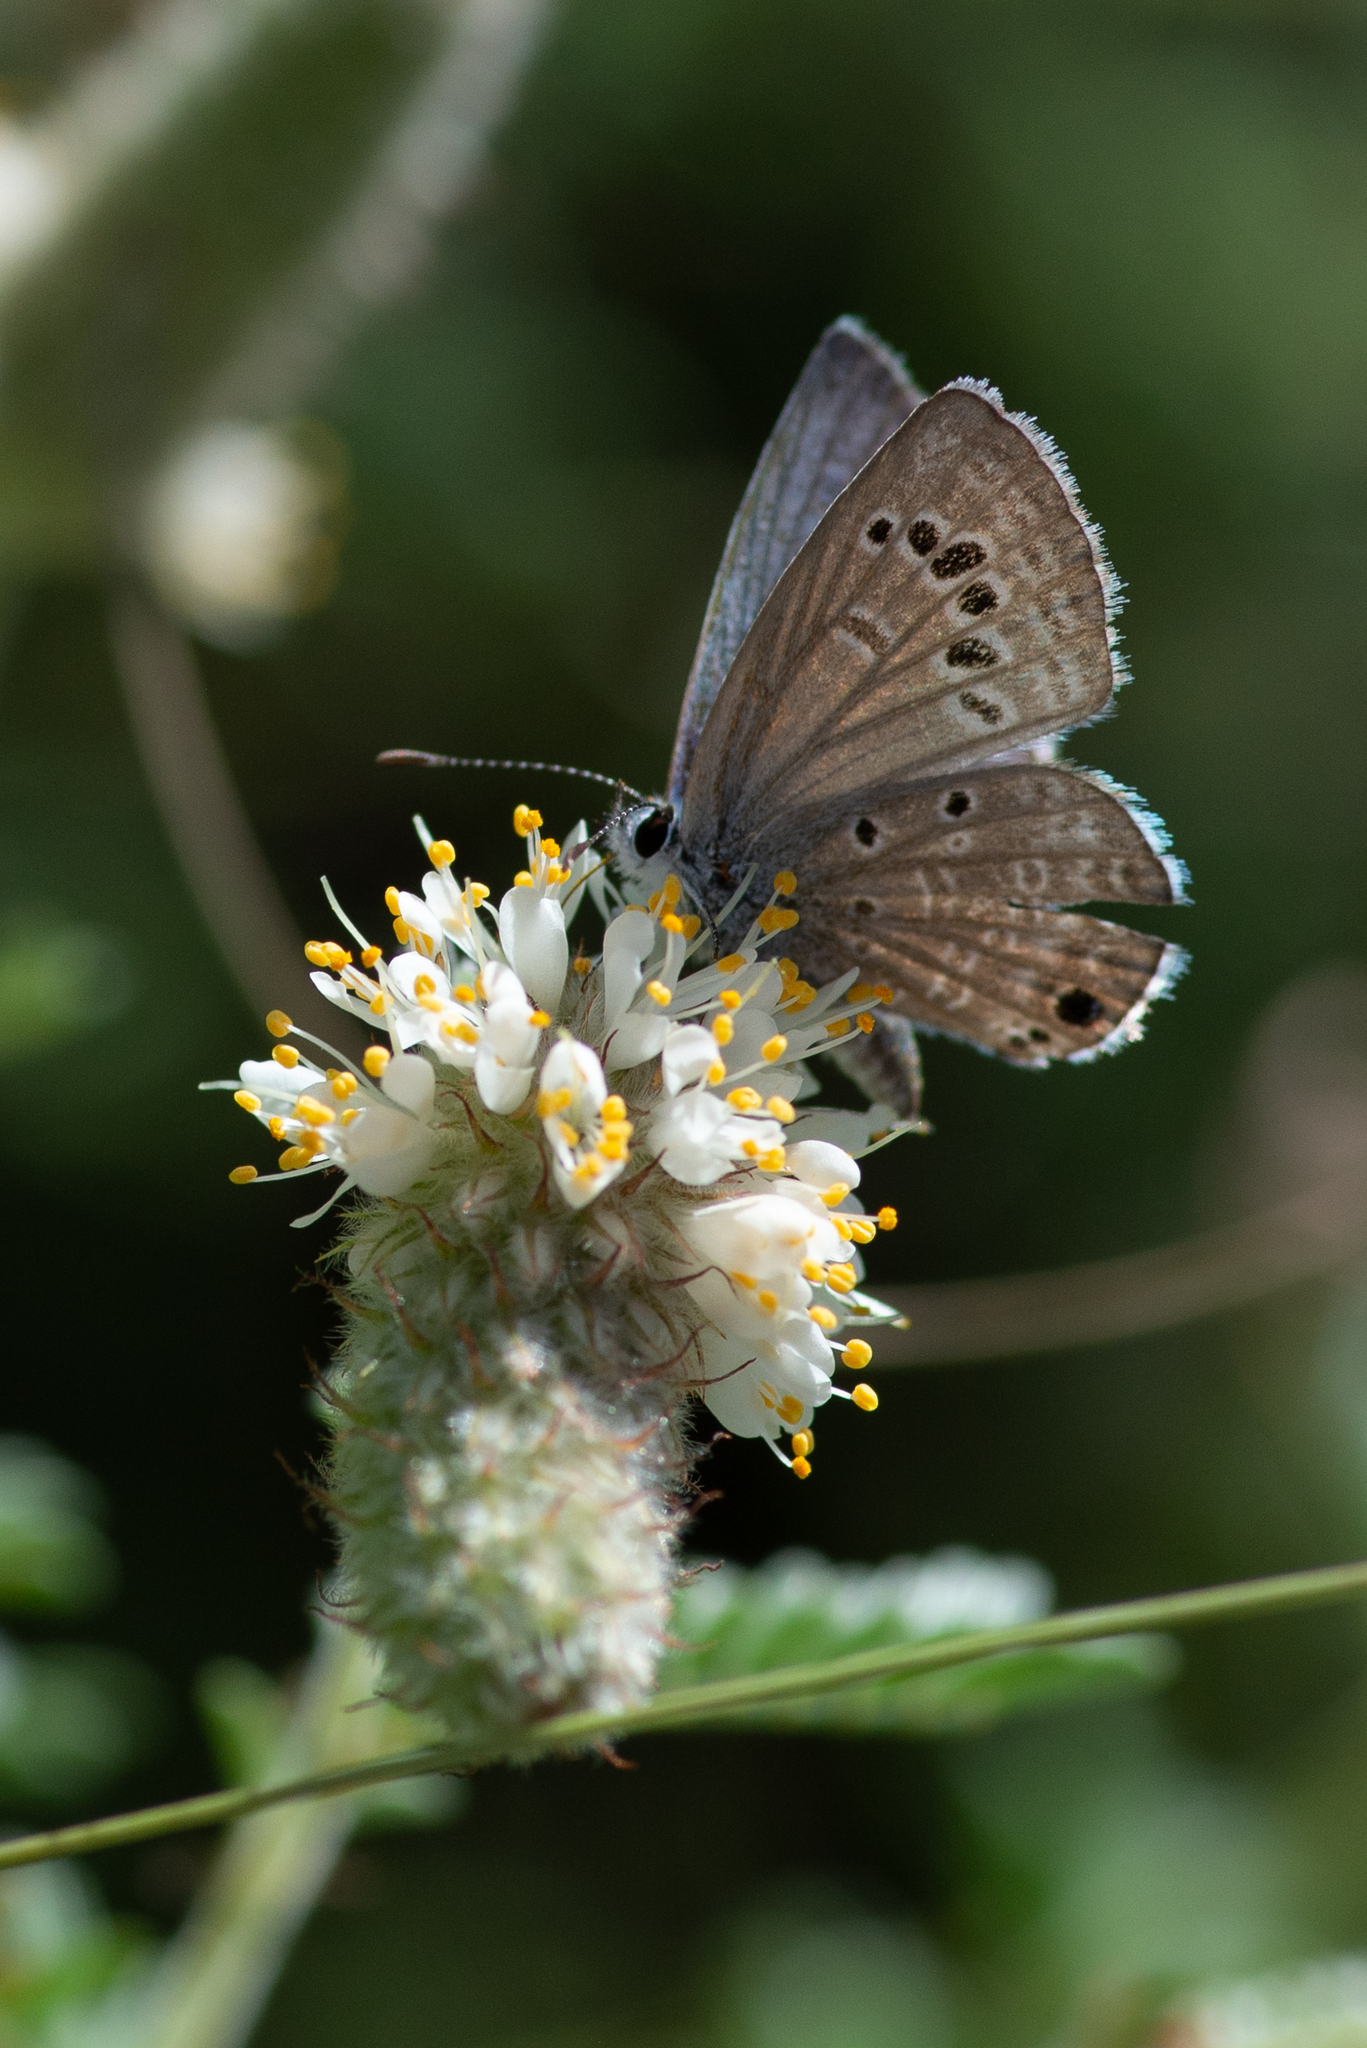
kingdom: Animalia
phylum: Arthropoda
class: Insecta
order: Lepidoptera
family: Lycaenidae
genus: Echinargus
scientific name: Echinargus isola
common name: Reakirt's blue
